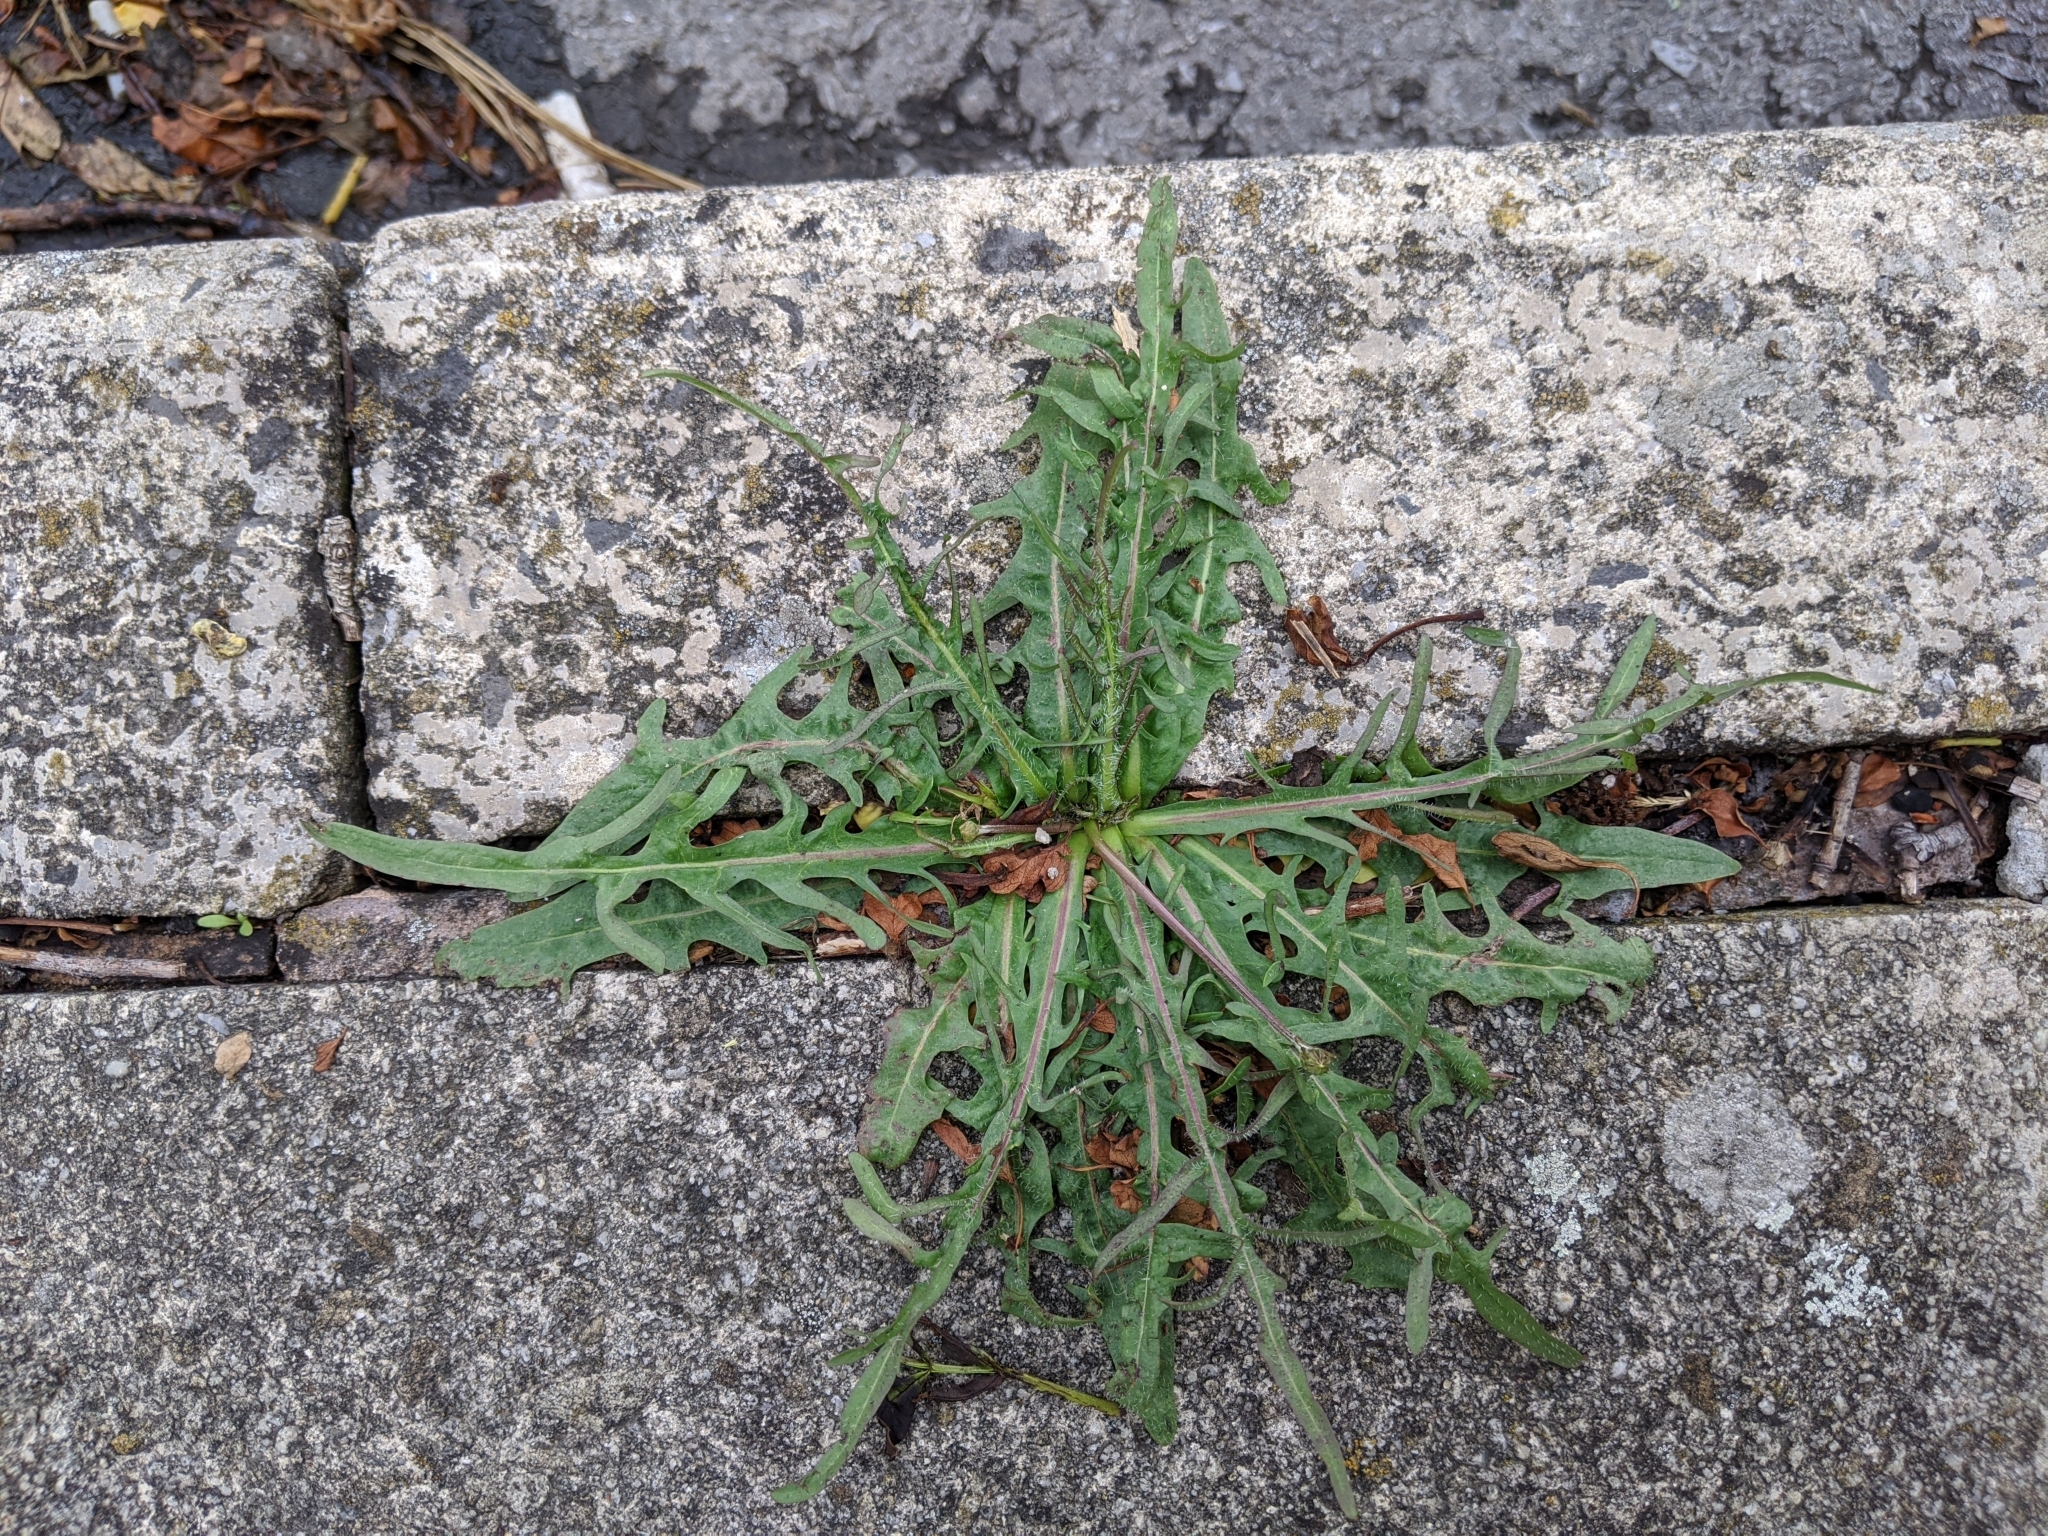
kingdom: Plantae
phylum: Tracheophyta
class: Magnoliopsida
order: Asterales
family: Asteraceae
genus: Taraxacum
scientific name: Taraxacum officinale
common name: Common dandelion
